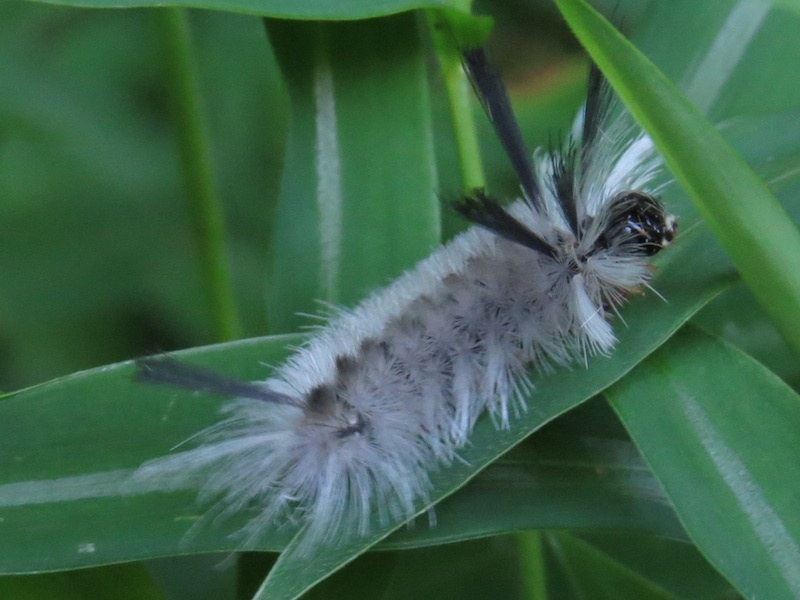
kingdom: Animalia
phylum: Arthropoda
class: Insecta
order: Lepidoptera
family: Erebidae
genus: Halysidota
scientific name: Halysidota tessellaris
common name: Banded tussock moth
